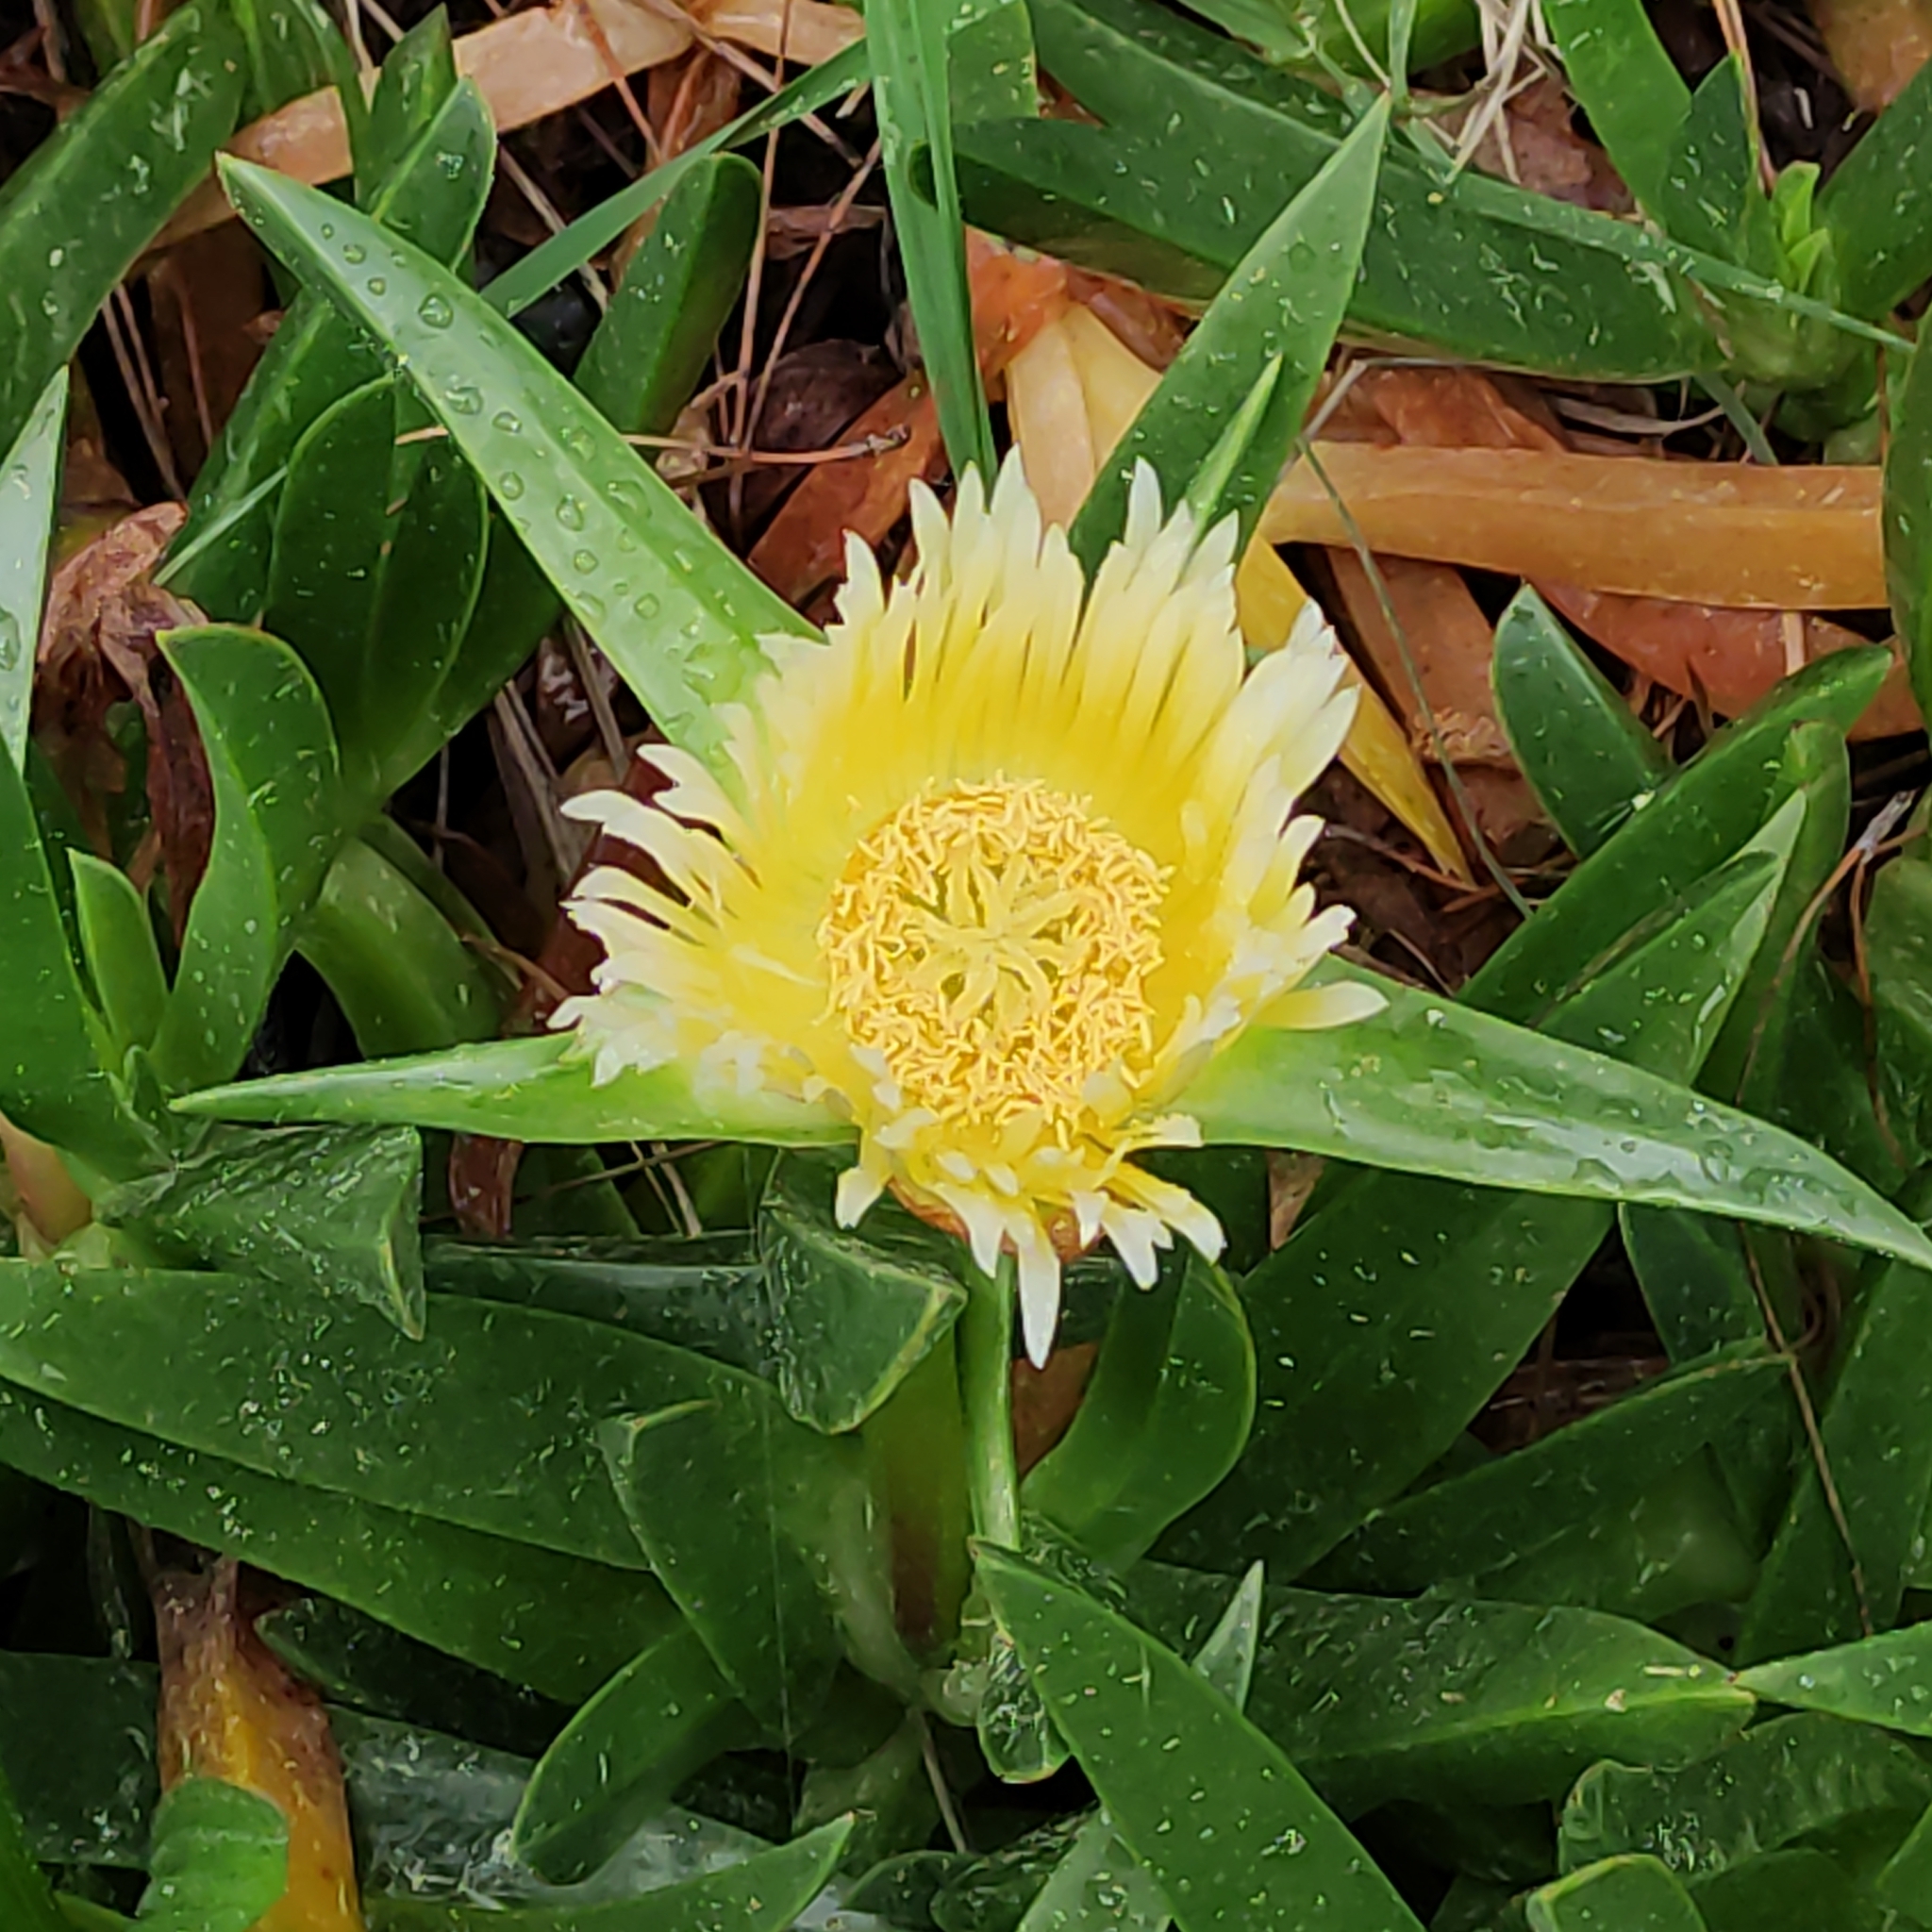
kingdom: Plantae
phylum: Tracheophyta
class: Magnoliopsida
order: Caryophyllales
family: Aizoaceae
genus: Carpobrotus
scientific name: Carpobrotus edulis
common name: Hottentot-fig
